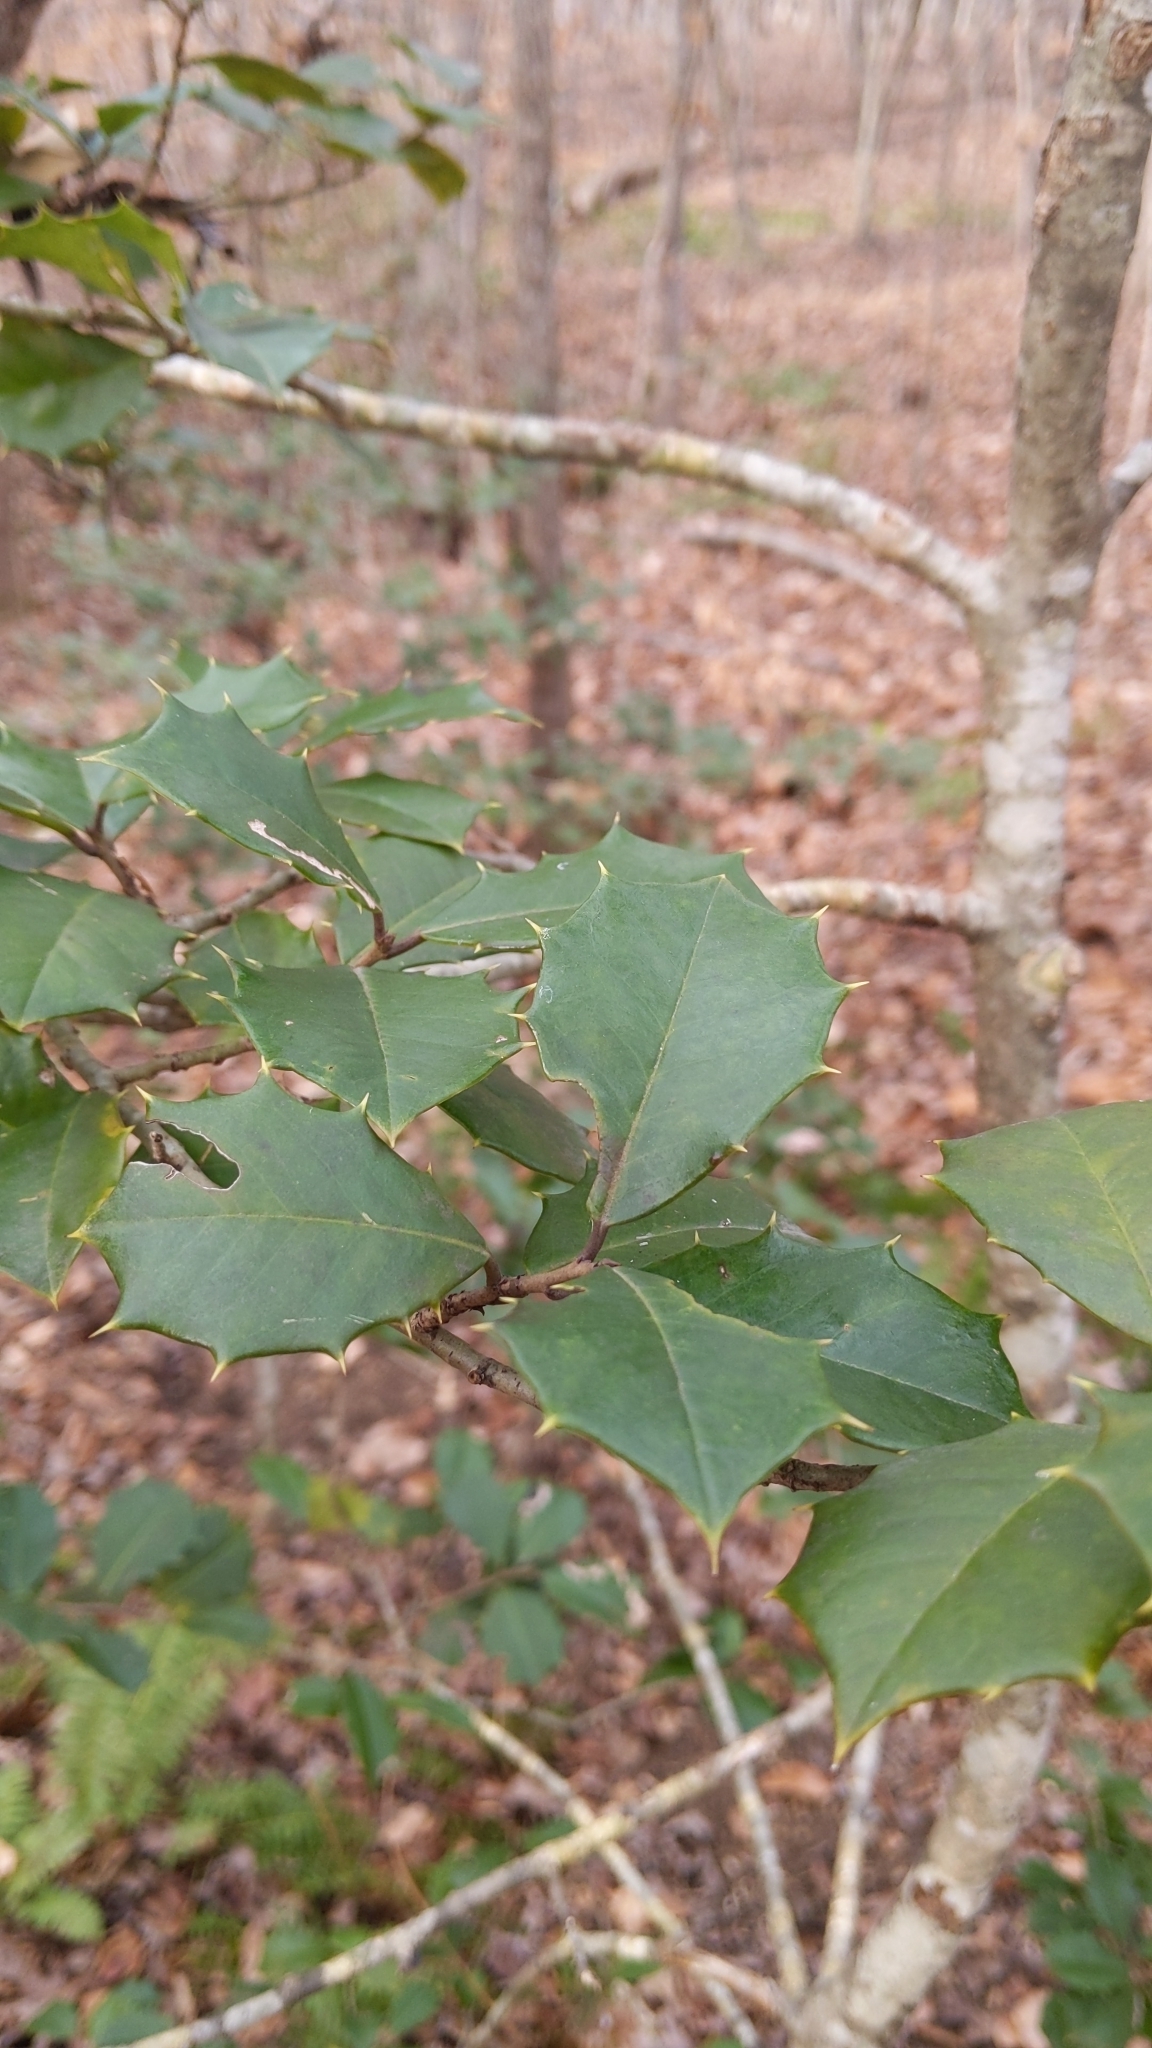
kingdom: Plantae
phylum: Tracheophyta
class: Magnoliopsida
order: Aquifoliales
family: Aquifoliaceae
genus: Ilex
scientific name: Ilex opaca
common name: American holly
